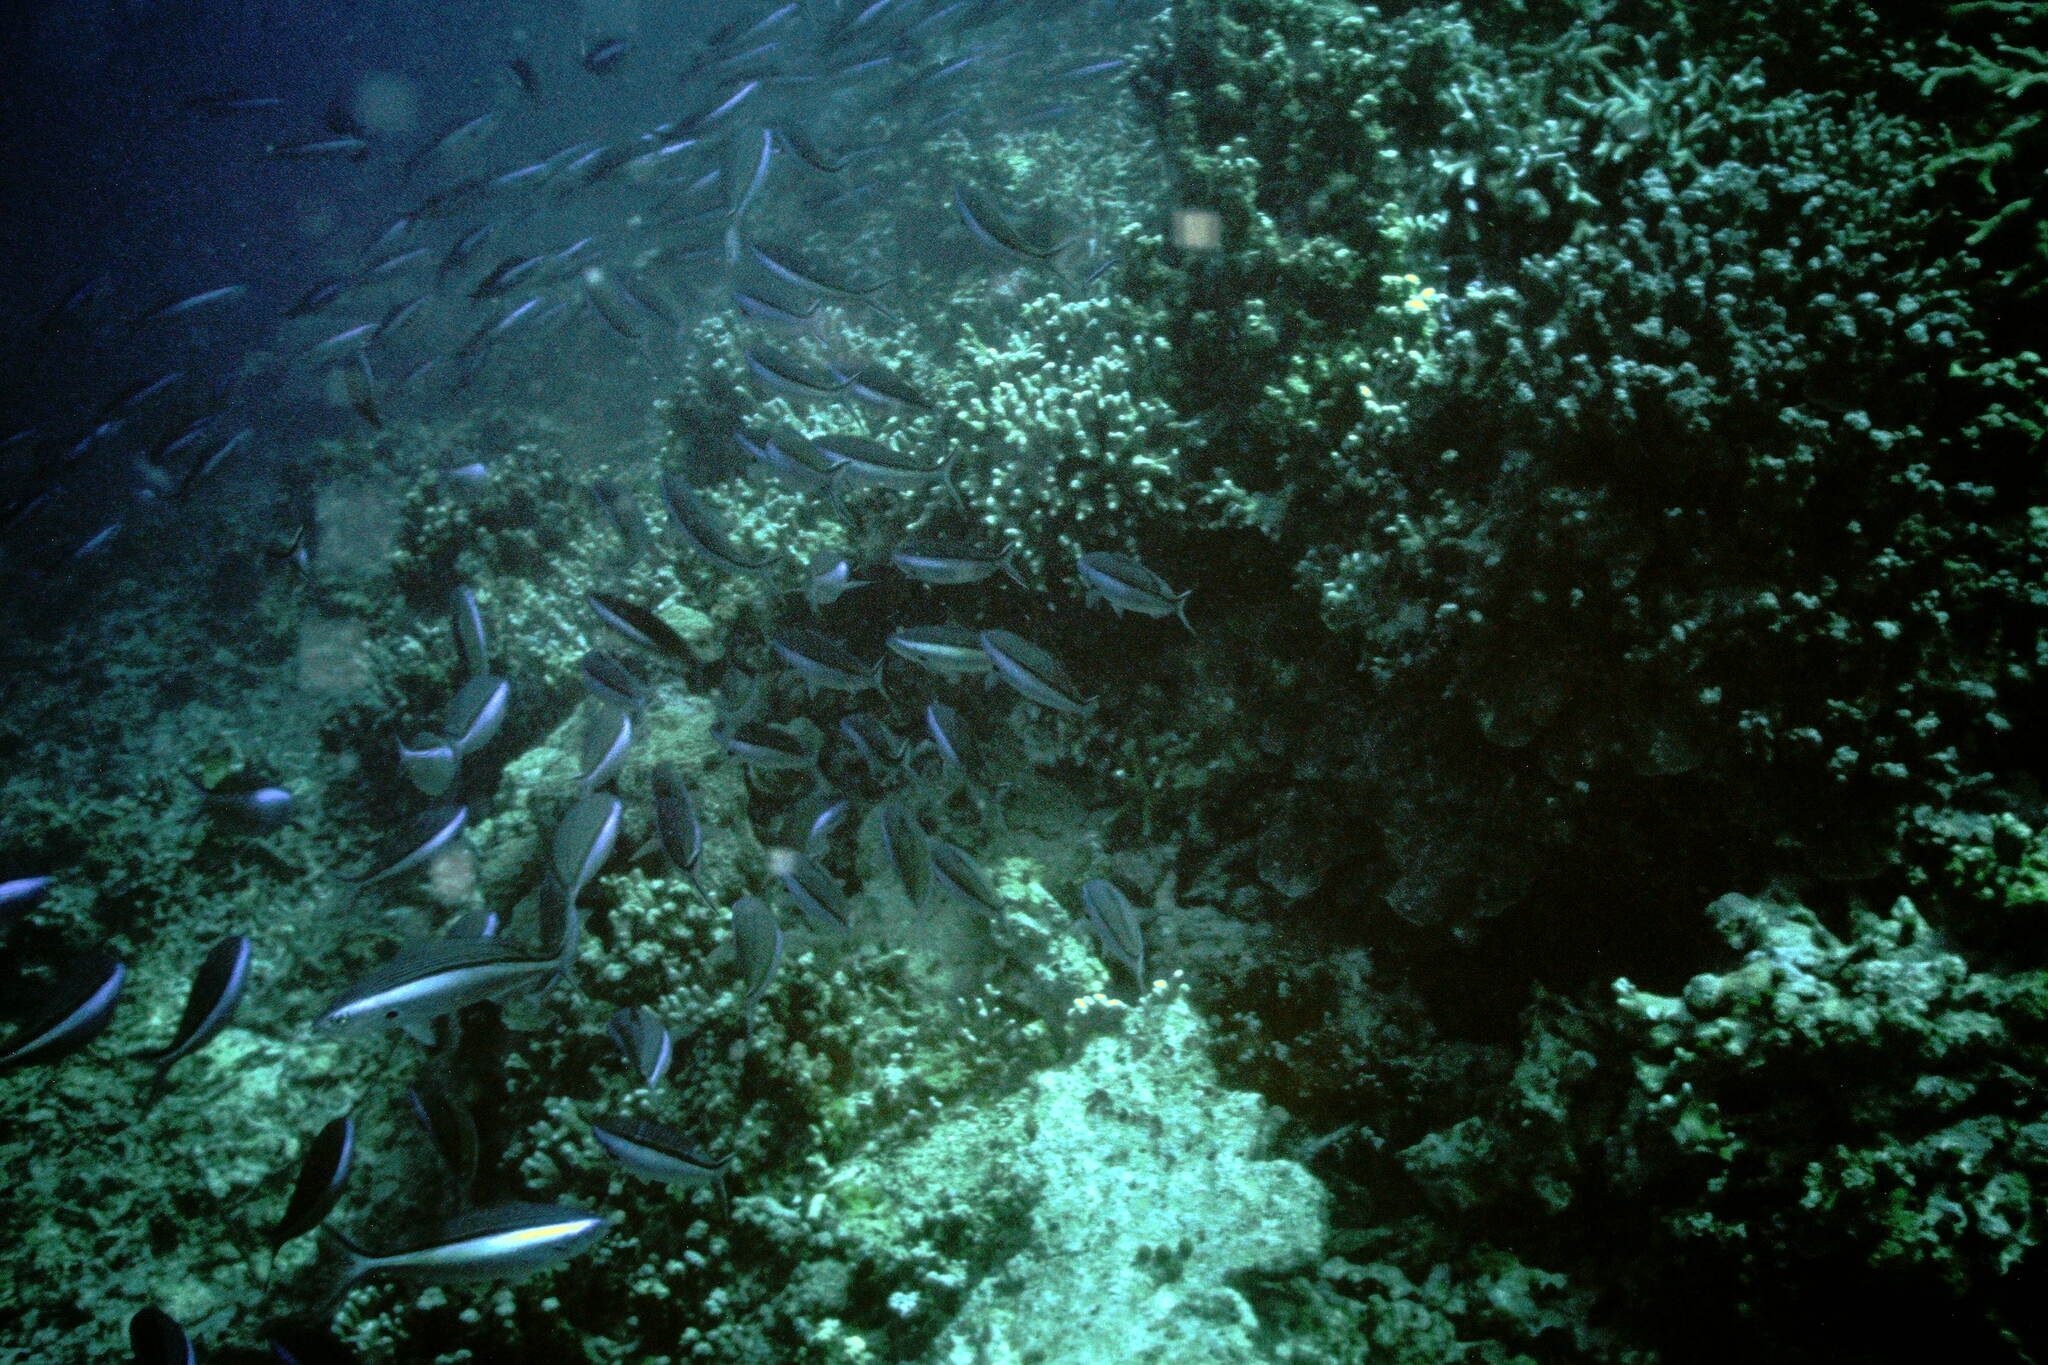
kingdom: Animalia
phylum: Chordata
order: Perciformes
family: Caesionidae
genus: Pterocaesio
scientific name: Pterocaesio tile
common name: Dark-banded fusilier
